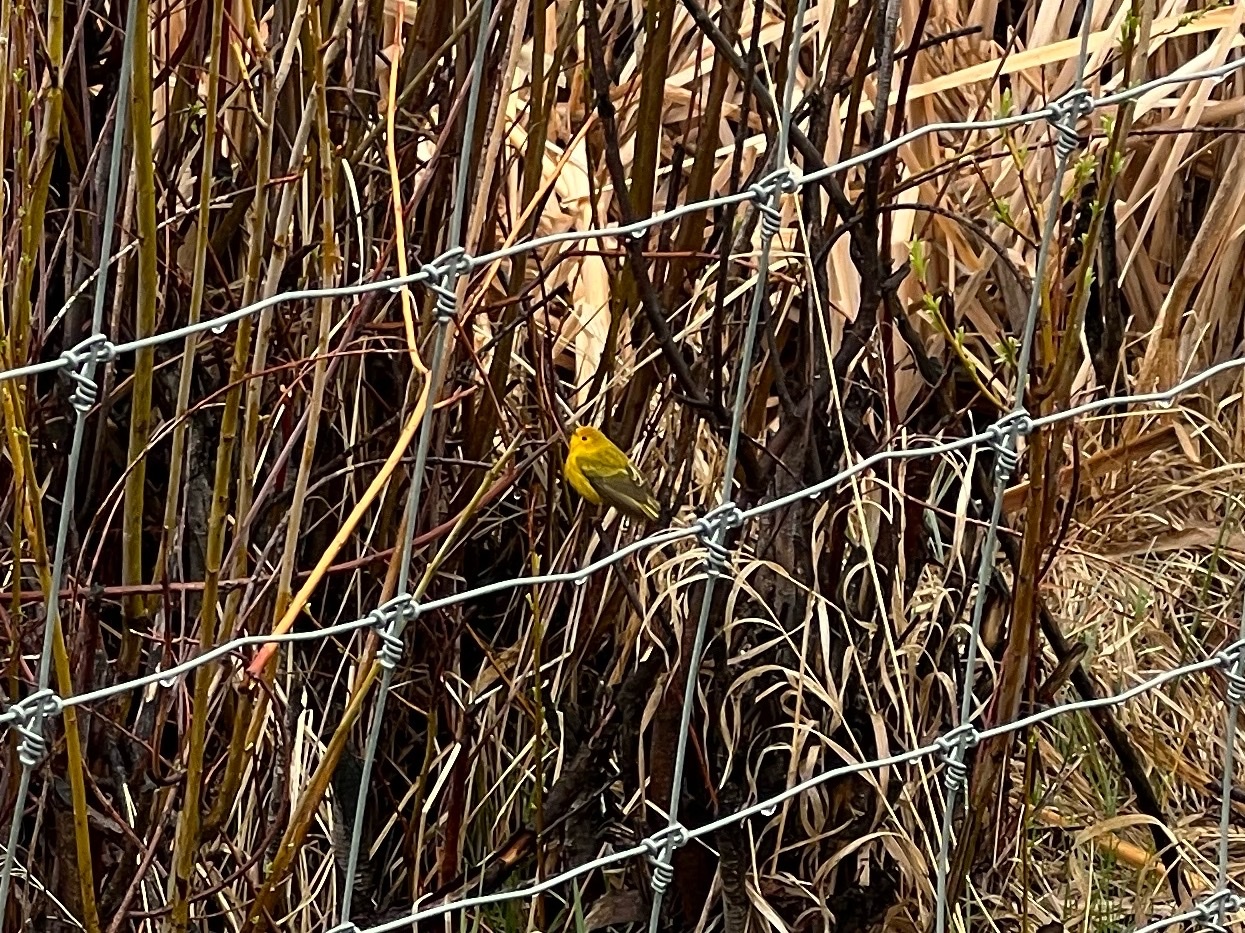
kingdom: Animalia
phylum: Chordata
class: Aves
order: Passeriformes
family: Parulidae
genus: Setophaga
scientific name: Setophaga petechia
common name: Yellow warbler
